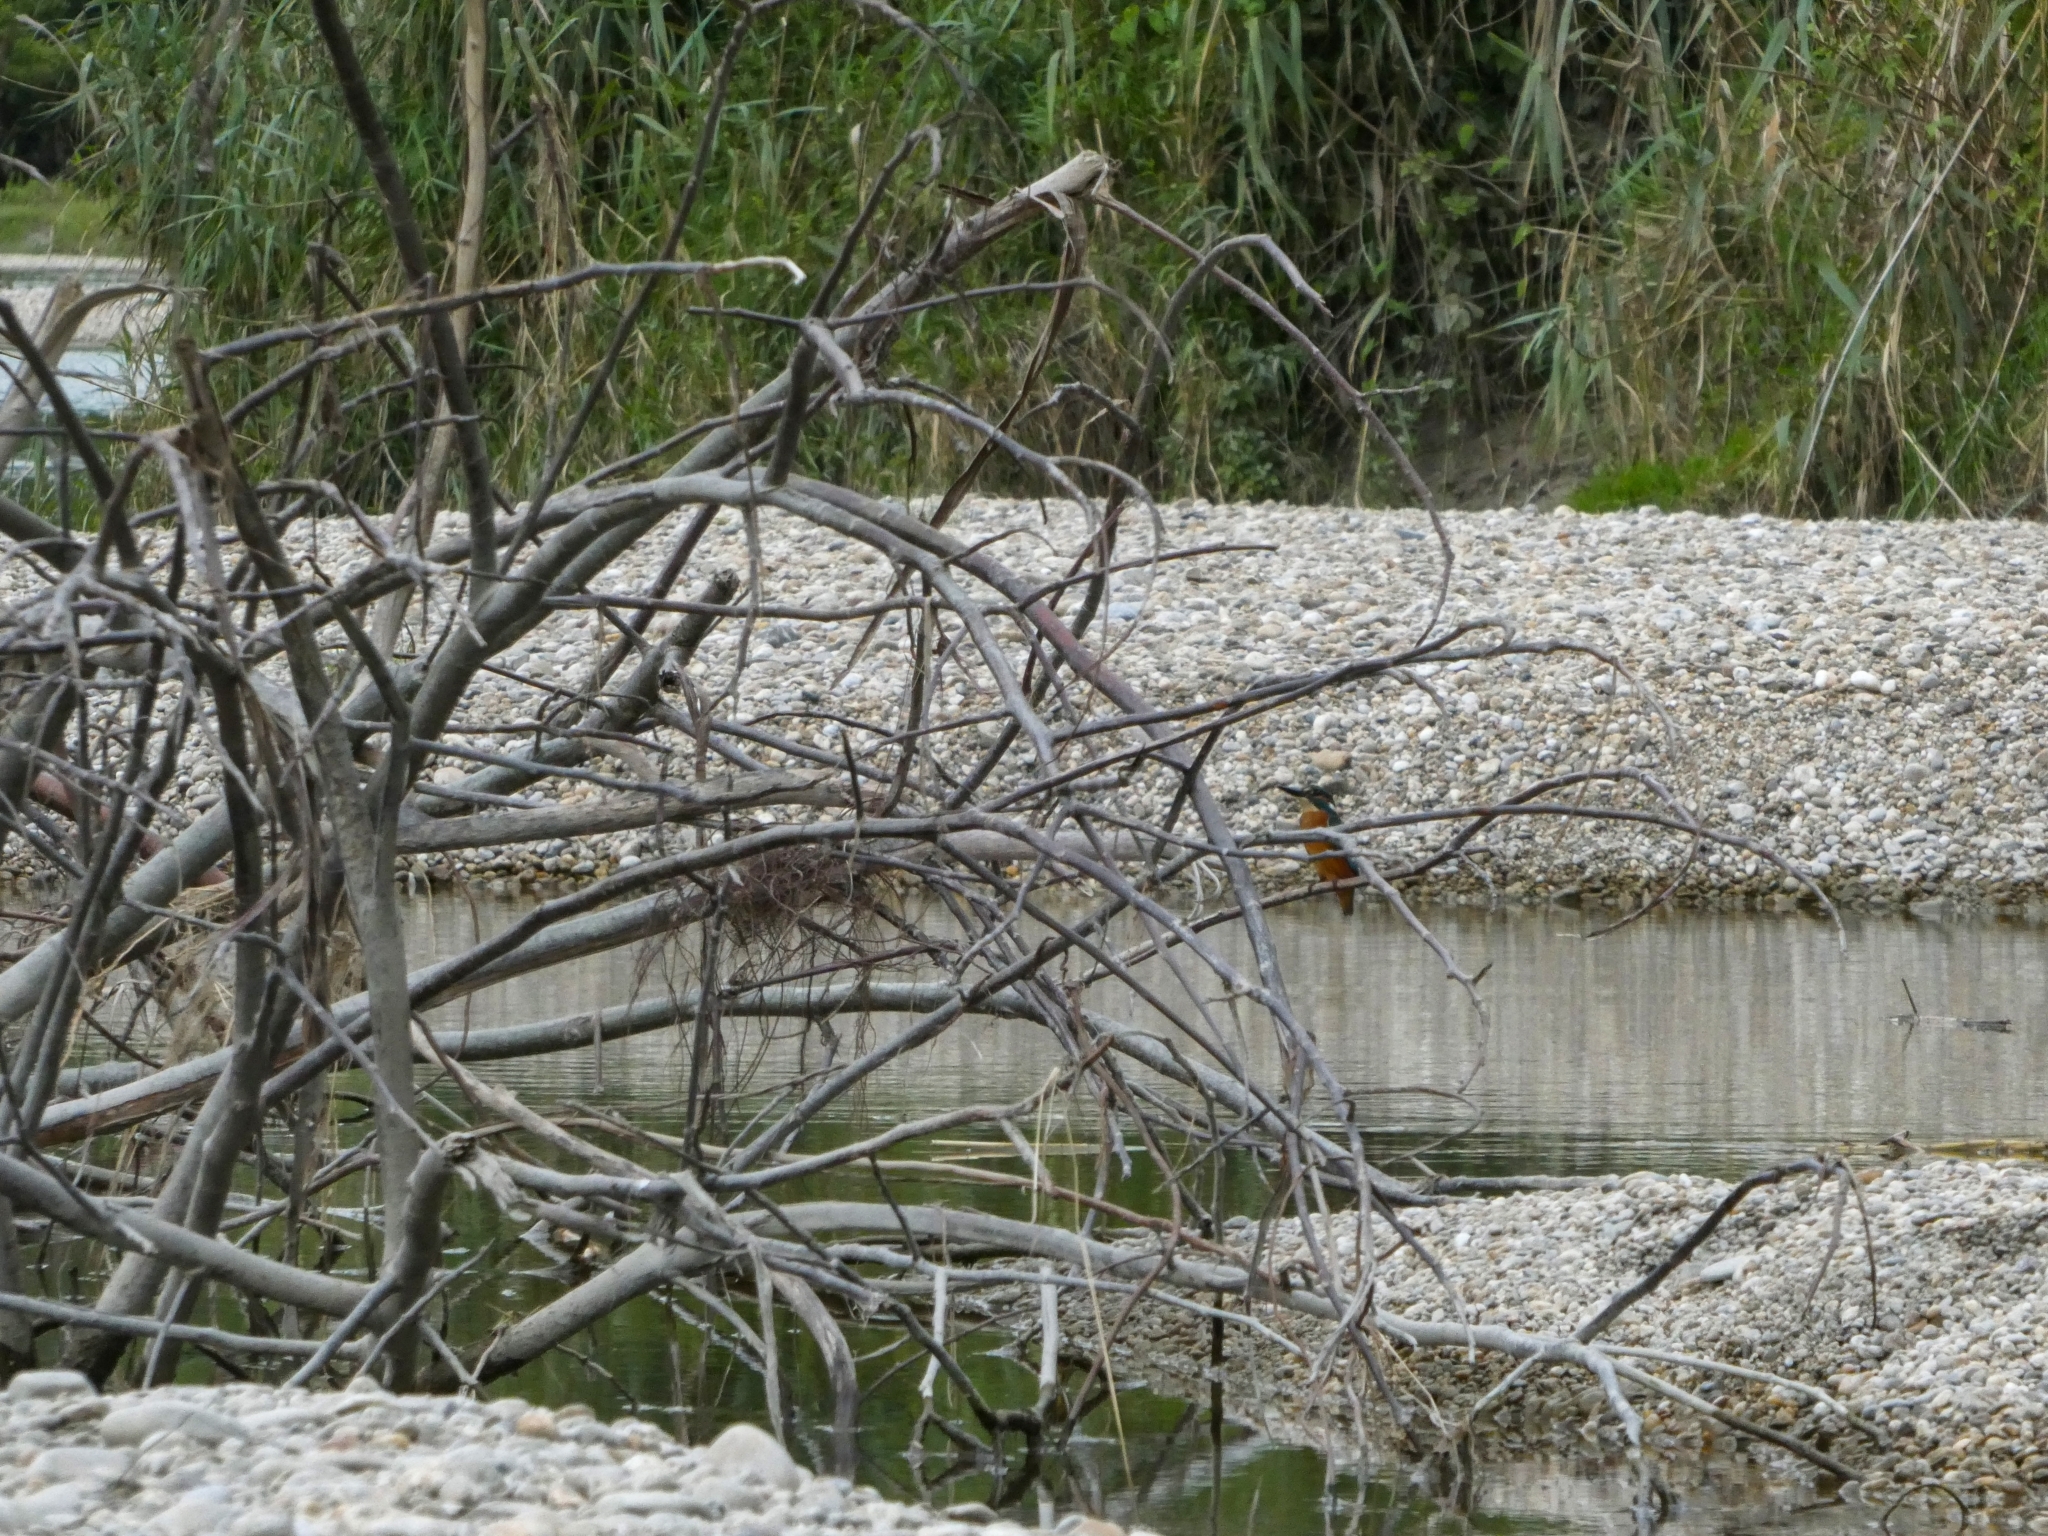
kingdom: Animalia
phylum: Chordata
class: Aves
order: Coraciiformes
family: Alcedinidae
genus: Alcedo
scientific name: Alcedo atthis
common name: Common kingfisher
